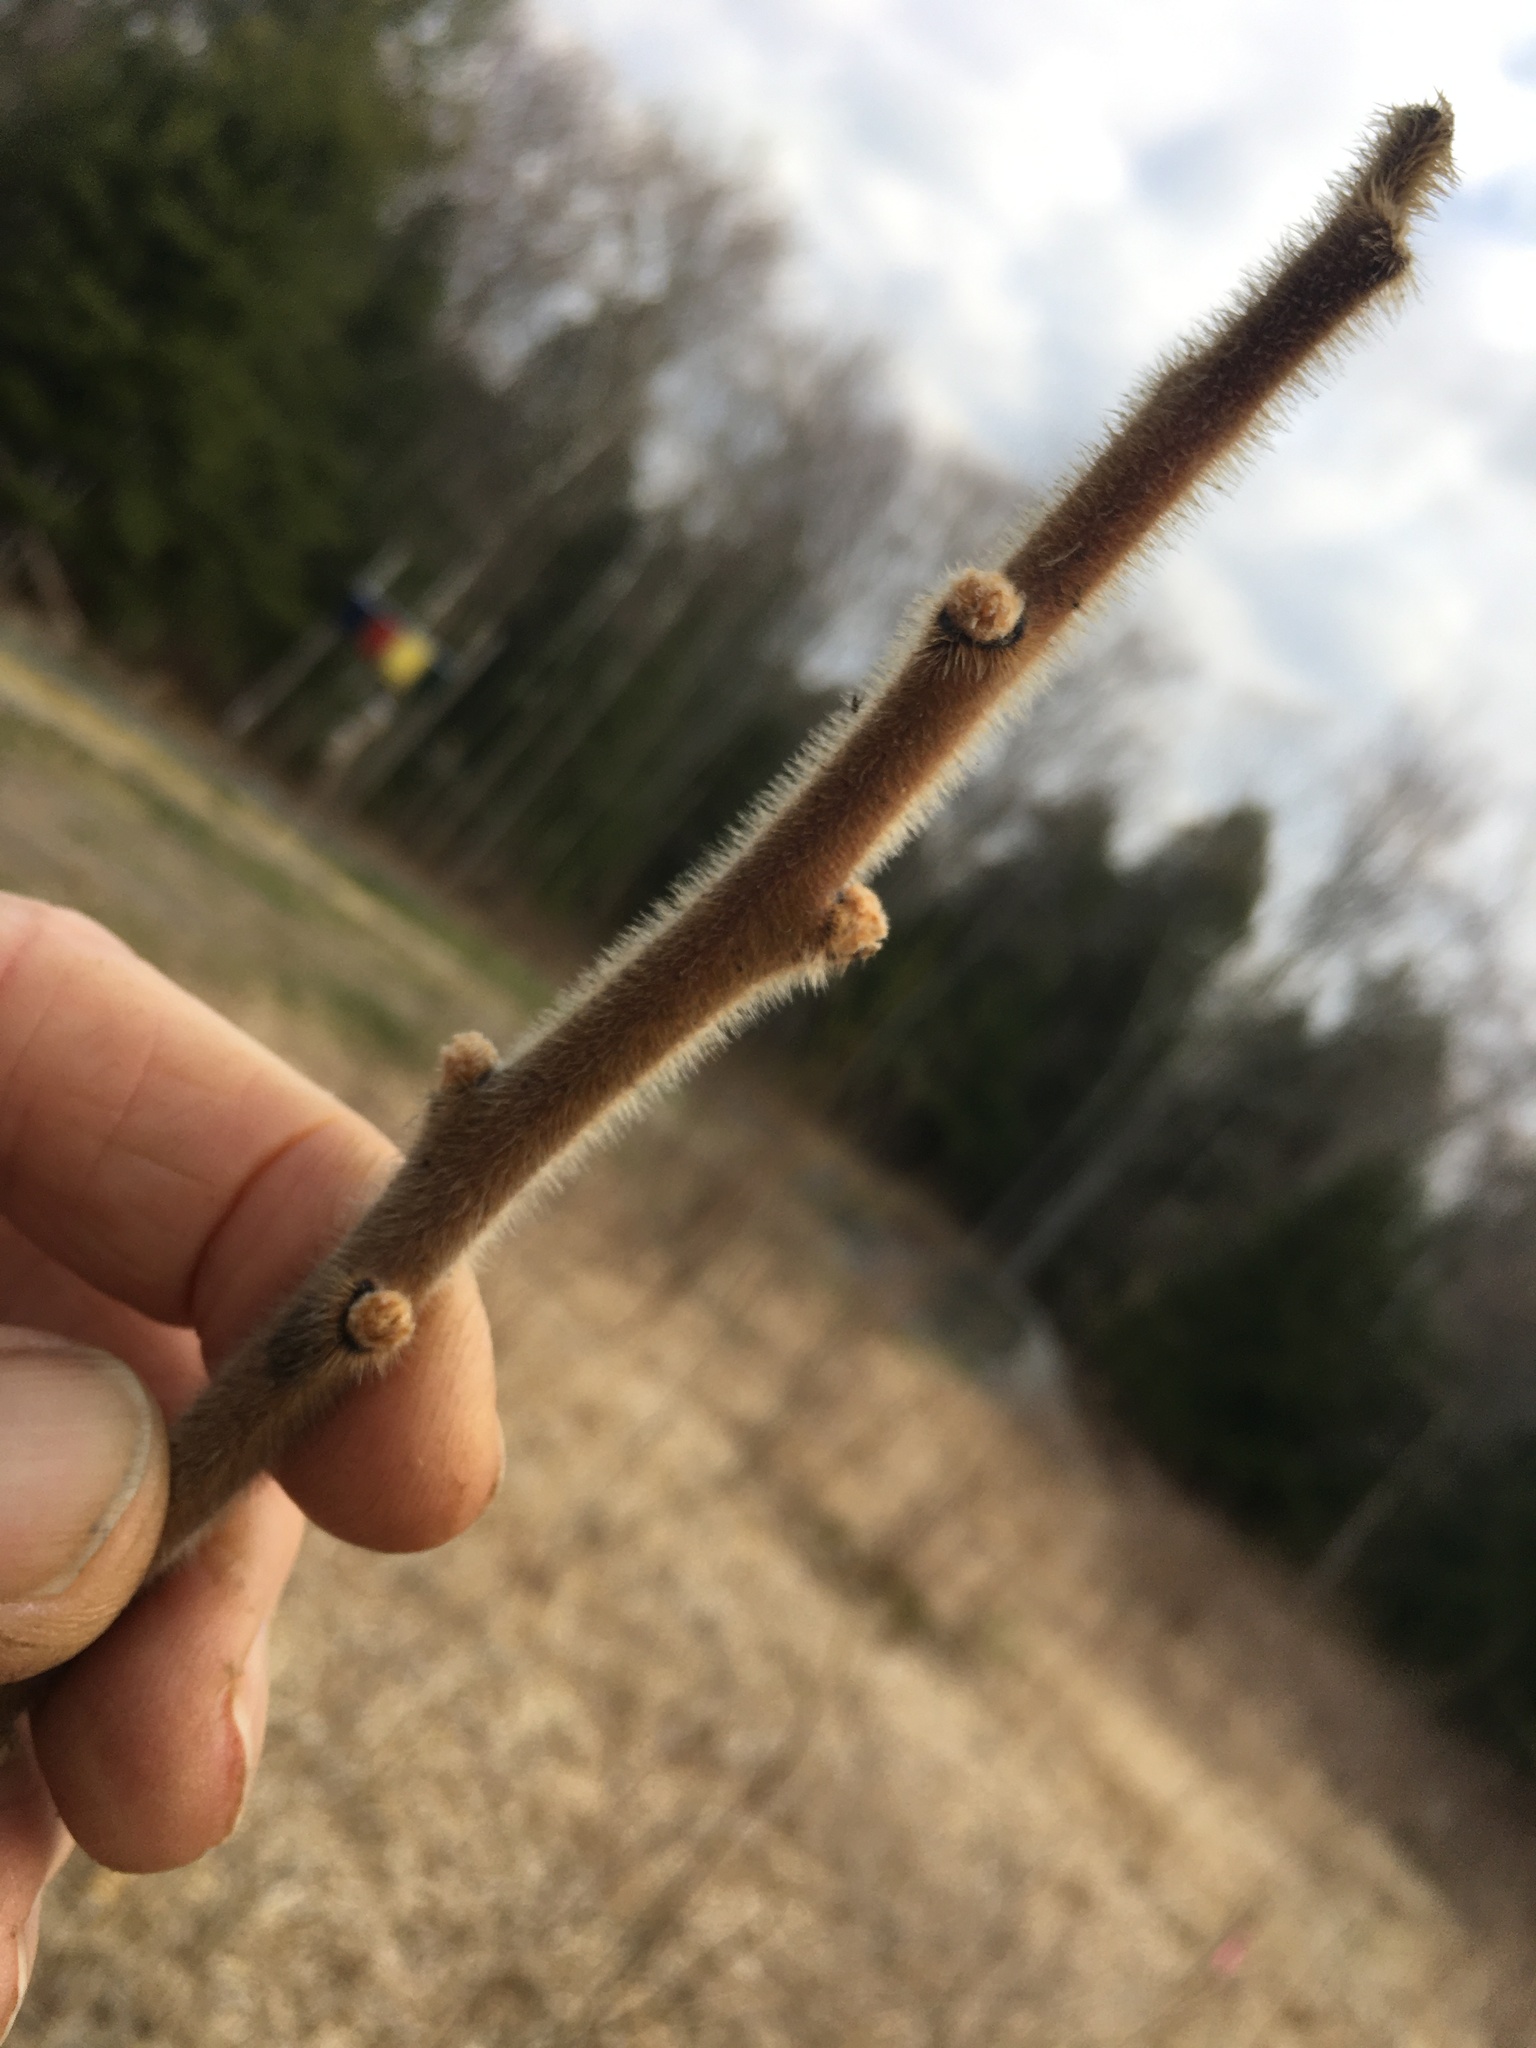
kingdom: Plantae
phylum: Tracheophyta
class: Magnoliopsida
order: Sapindales
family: Anacardiaceae
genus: Rhus
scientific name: Rhus typhina
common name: Staghorn sumac
